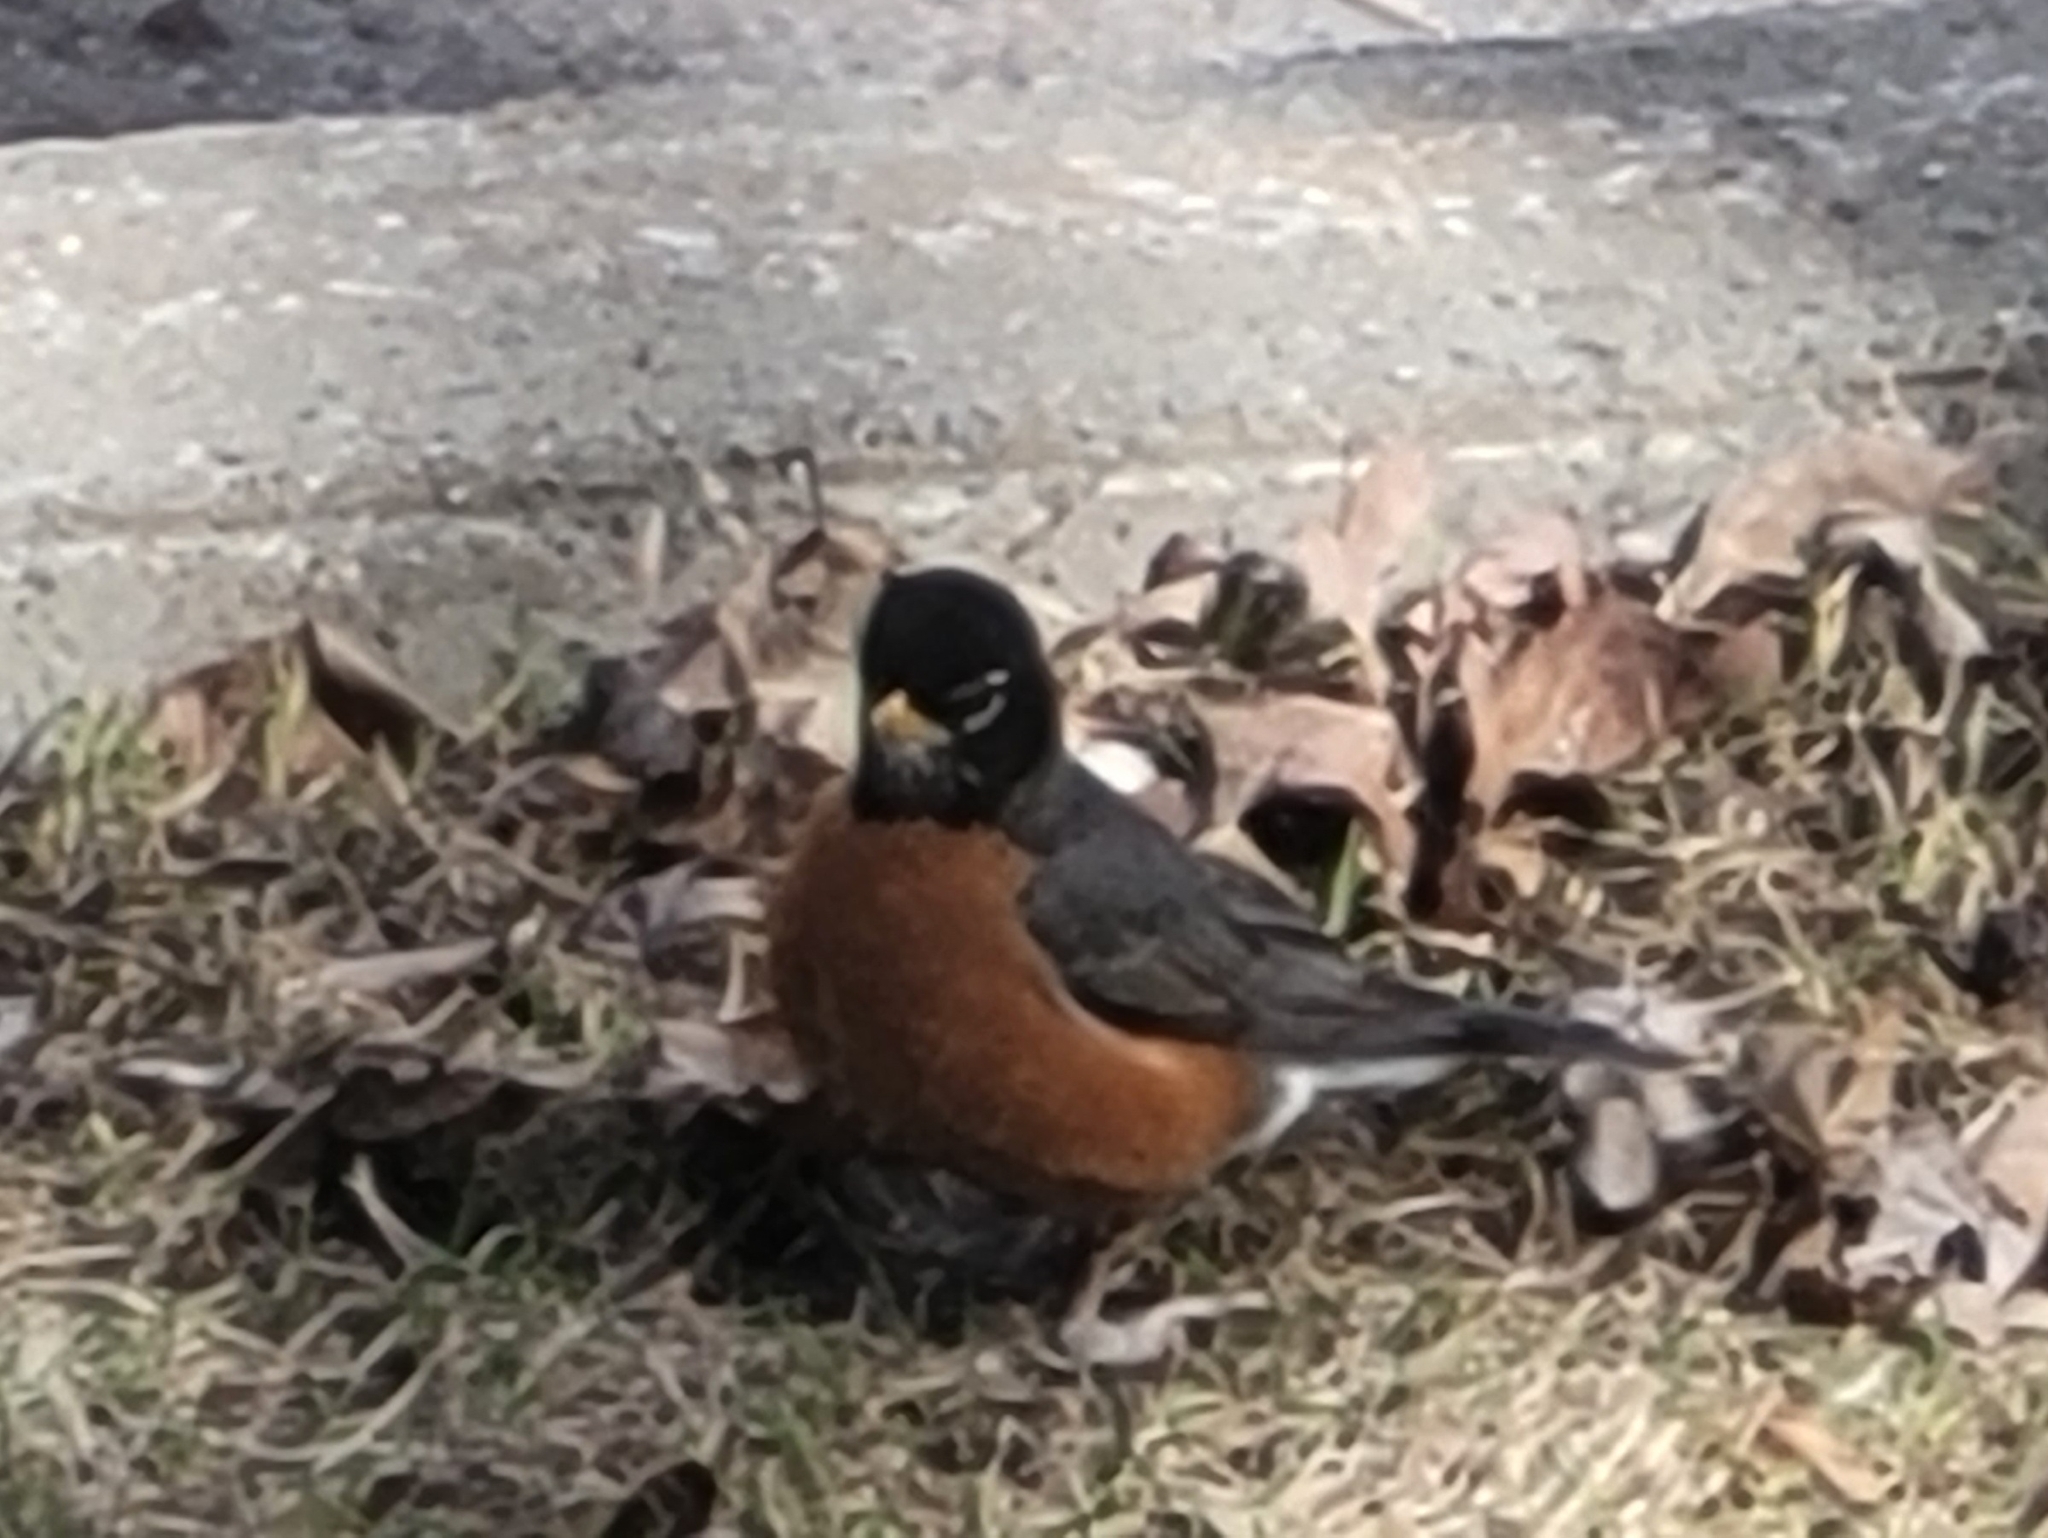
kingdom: Animalia
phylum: Chordata
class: Aves
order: Passeriformes
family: Turdidae
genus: Turdus
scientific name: Turdus migratorius
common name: American robin
